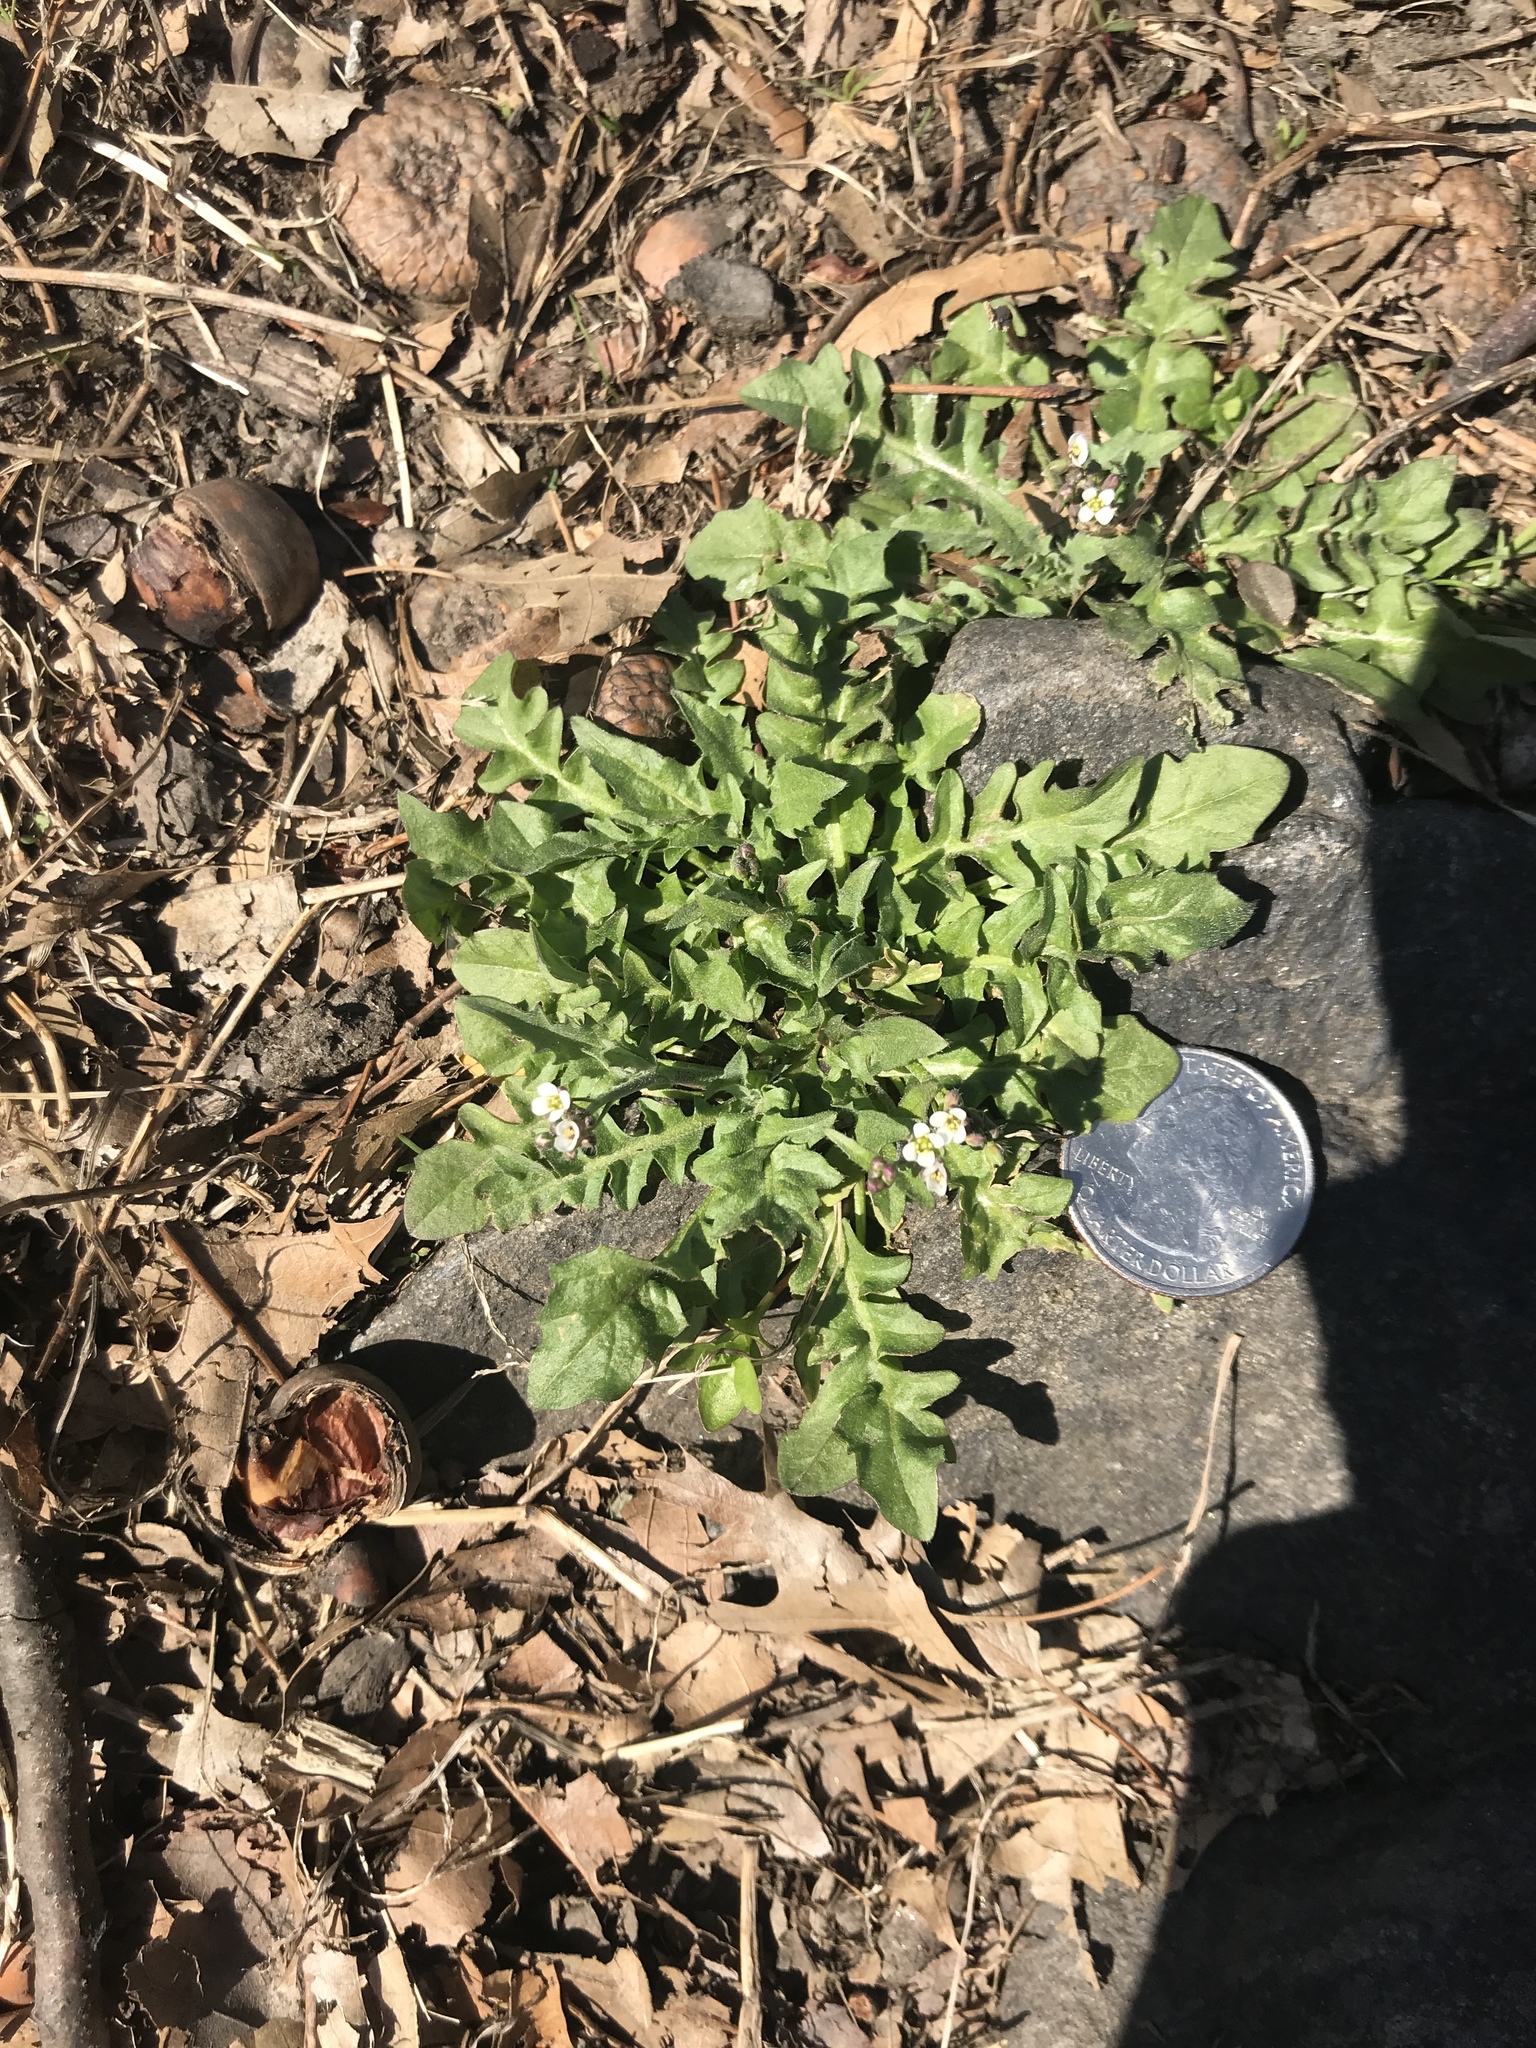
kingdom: Plantae
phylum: Tracheophyta
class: Magnoliopsida
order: Brassicales
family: Brassicaceae
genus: Capsella
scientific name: Capsella bursa-pastoris
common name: Shepherd's purse
